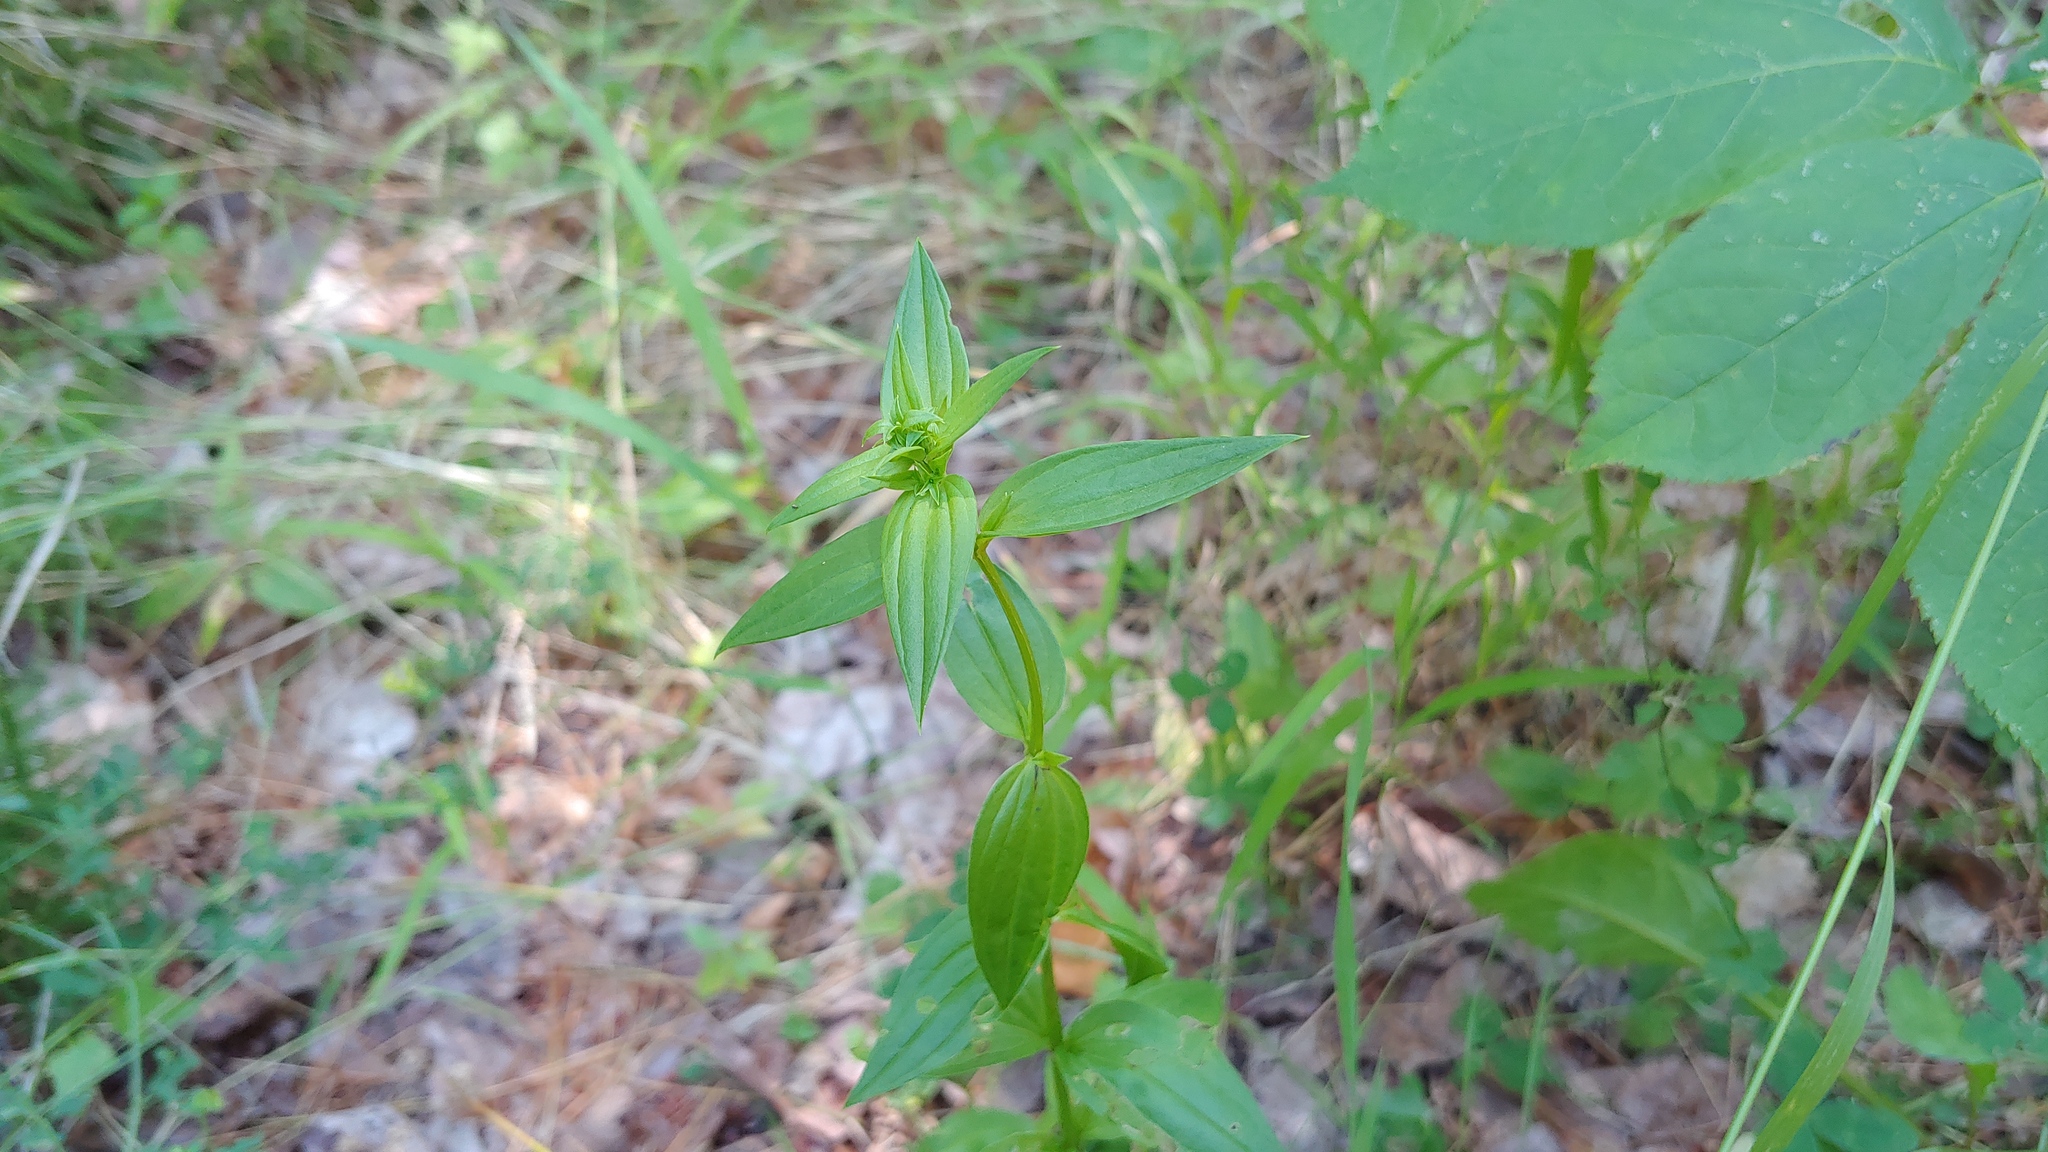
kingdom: Plantae
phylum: Tracheophyta
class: Magnoliopsida
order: Gentianales
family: Gentianaceae
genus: Halenia
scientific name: Halenia deflexa
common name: American spurred gentian
